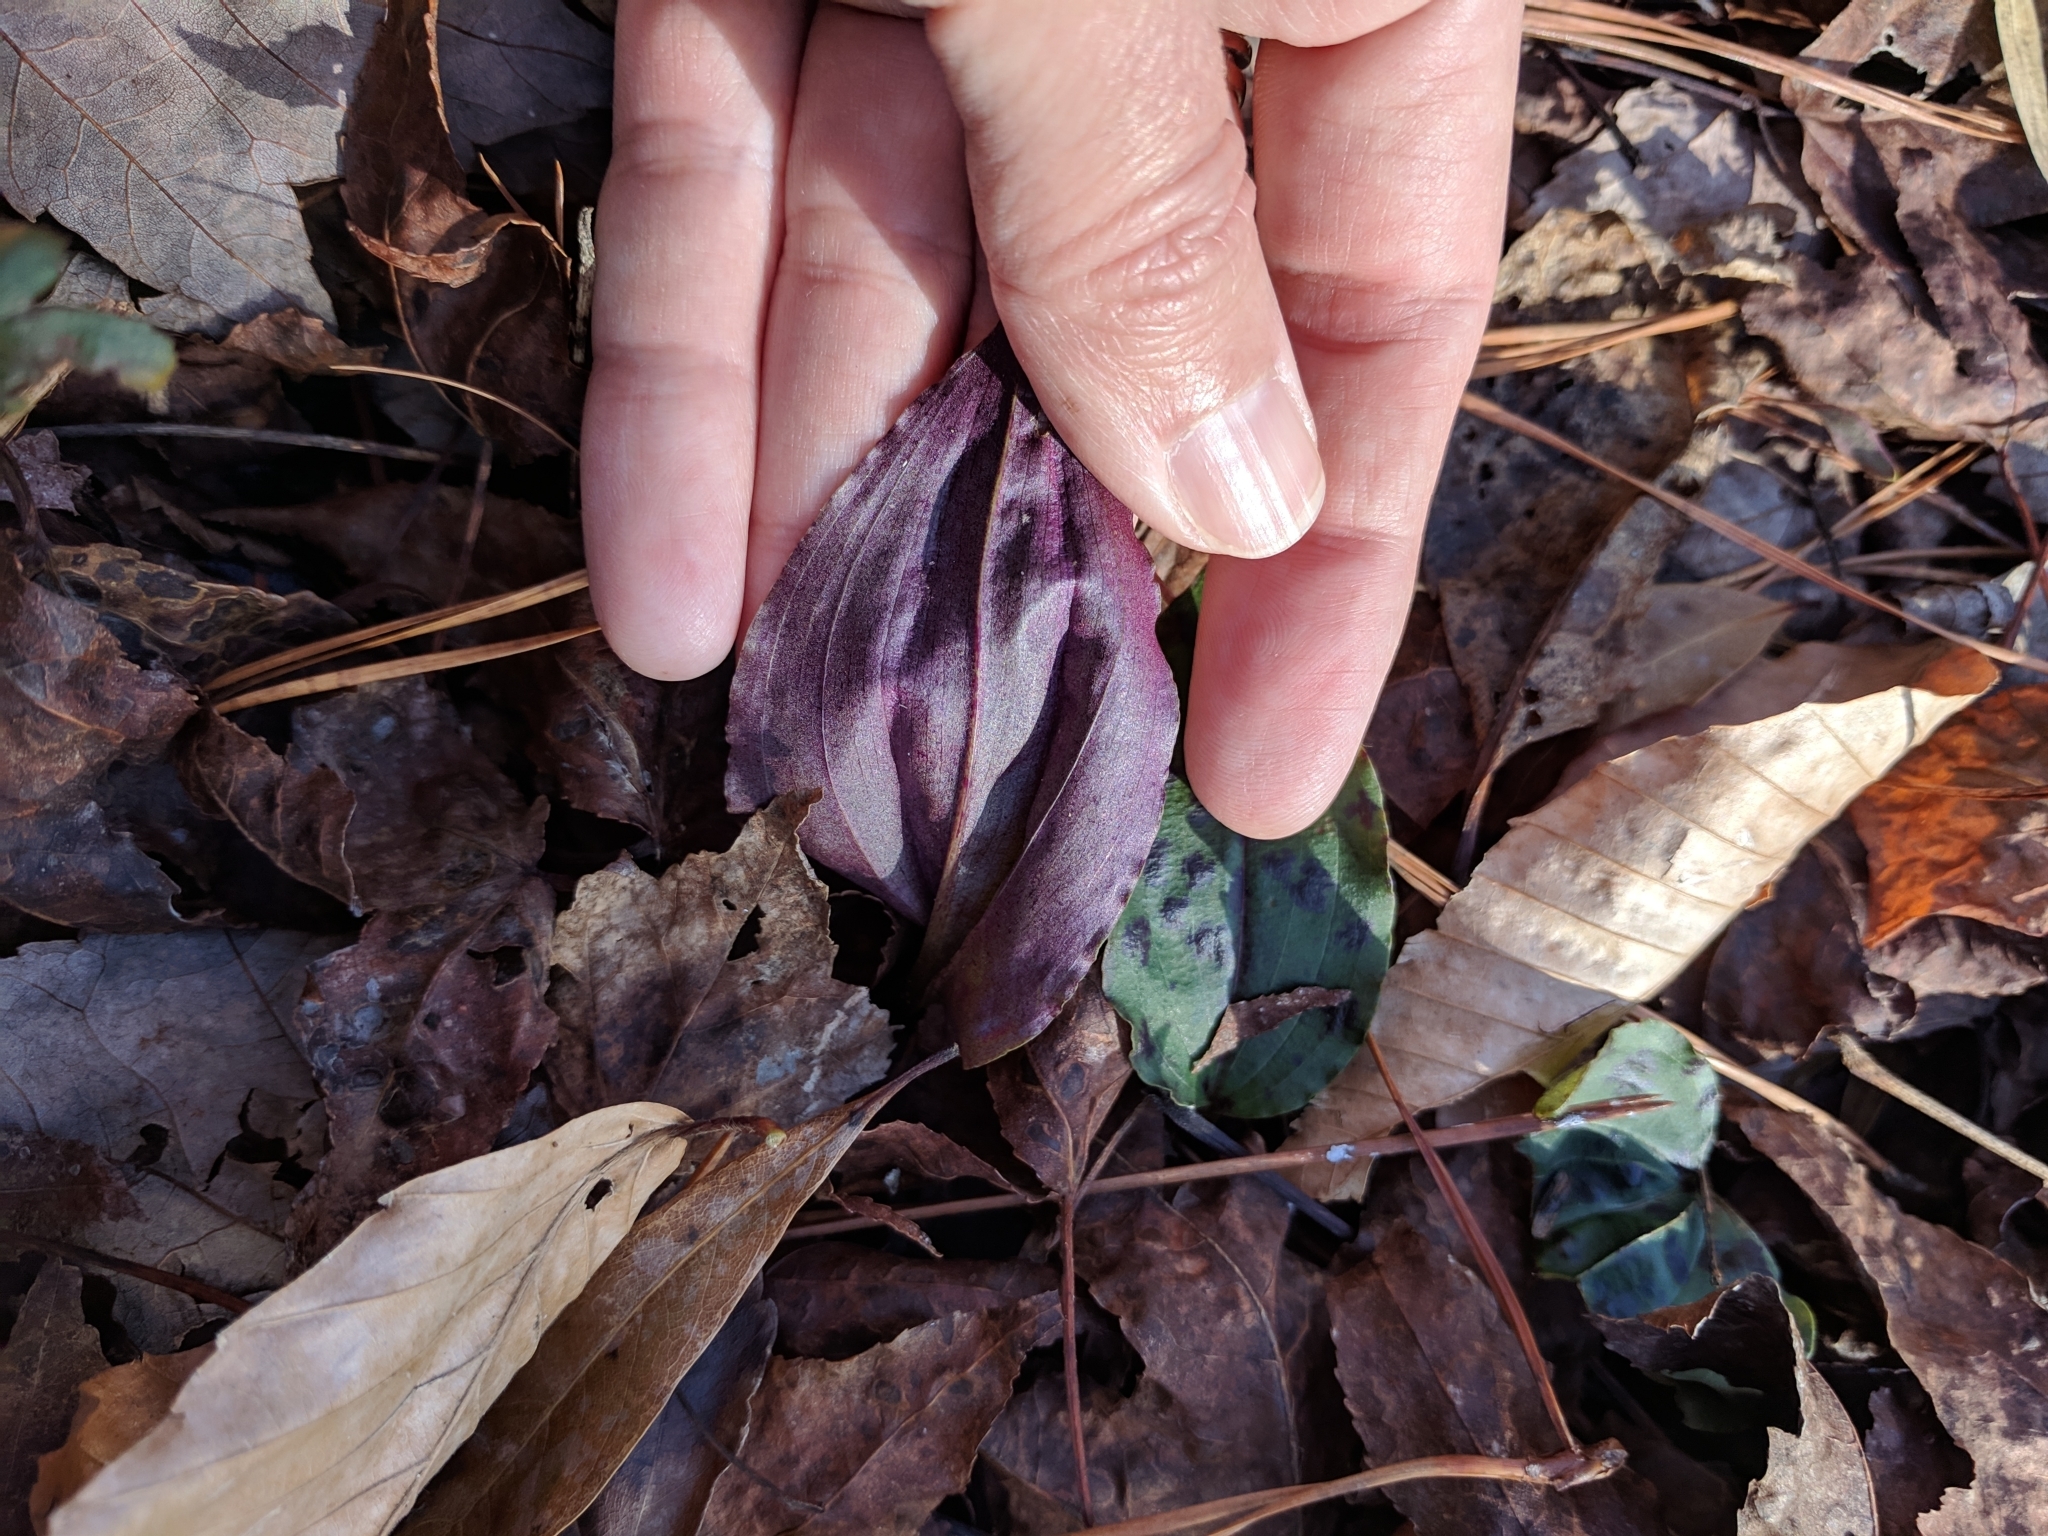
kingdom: Plantae
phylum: Tracheophyta
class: Liliopsida
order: Asparagales
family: Orchidaceae
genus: Tipularia
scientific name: Tipularia discolor
